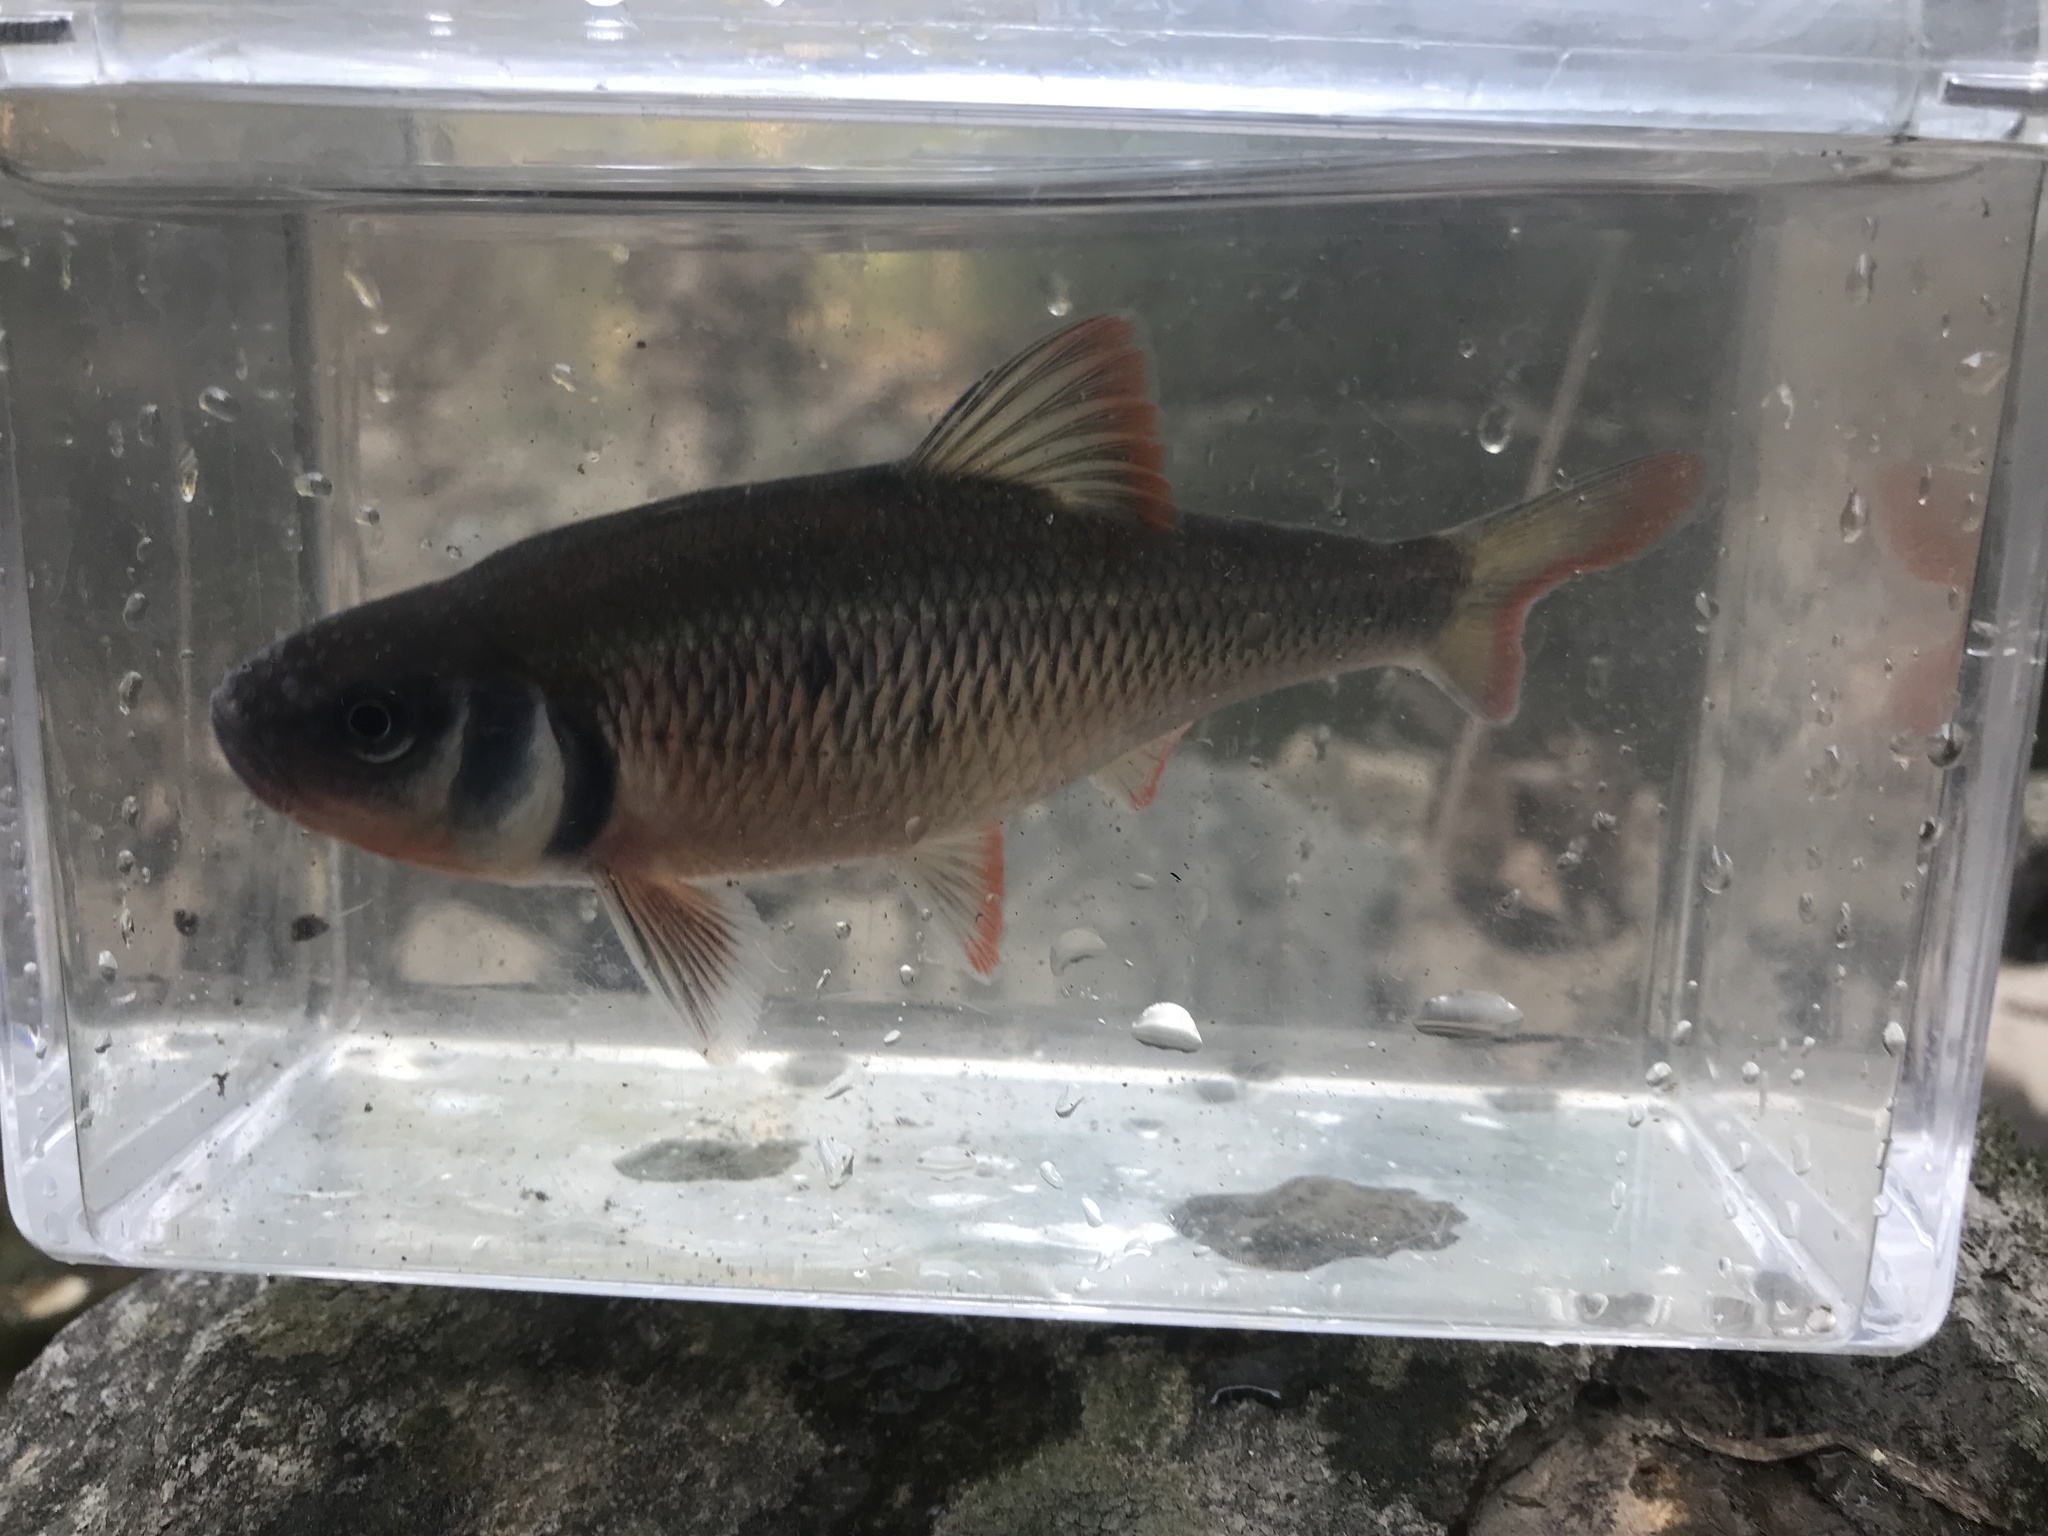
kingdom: Animalia
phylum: Chordata
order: Cypriniformes
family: Cyprinidae
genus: Luxilus
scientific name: Luxilus albeolus
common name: White shiner
